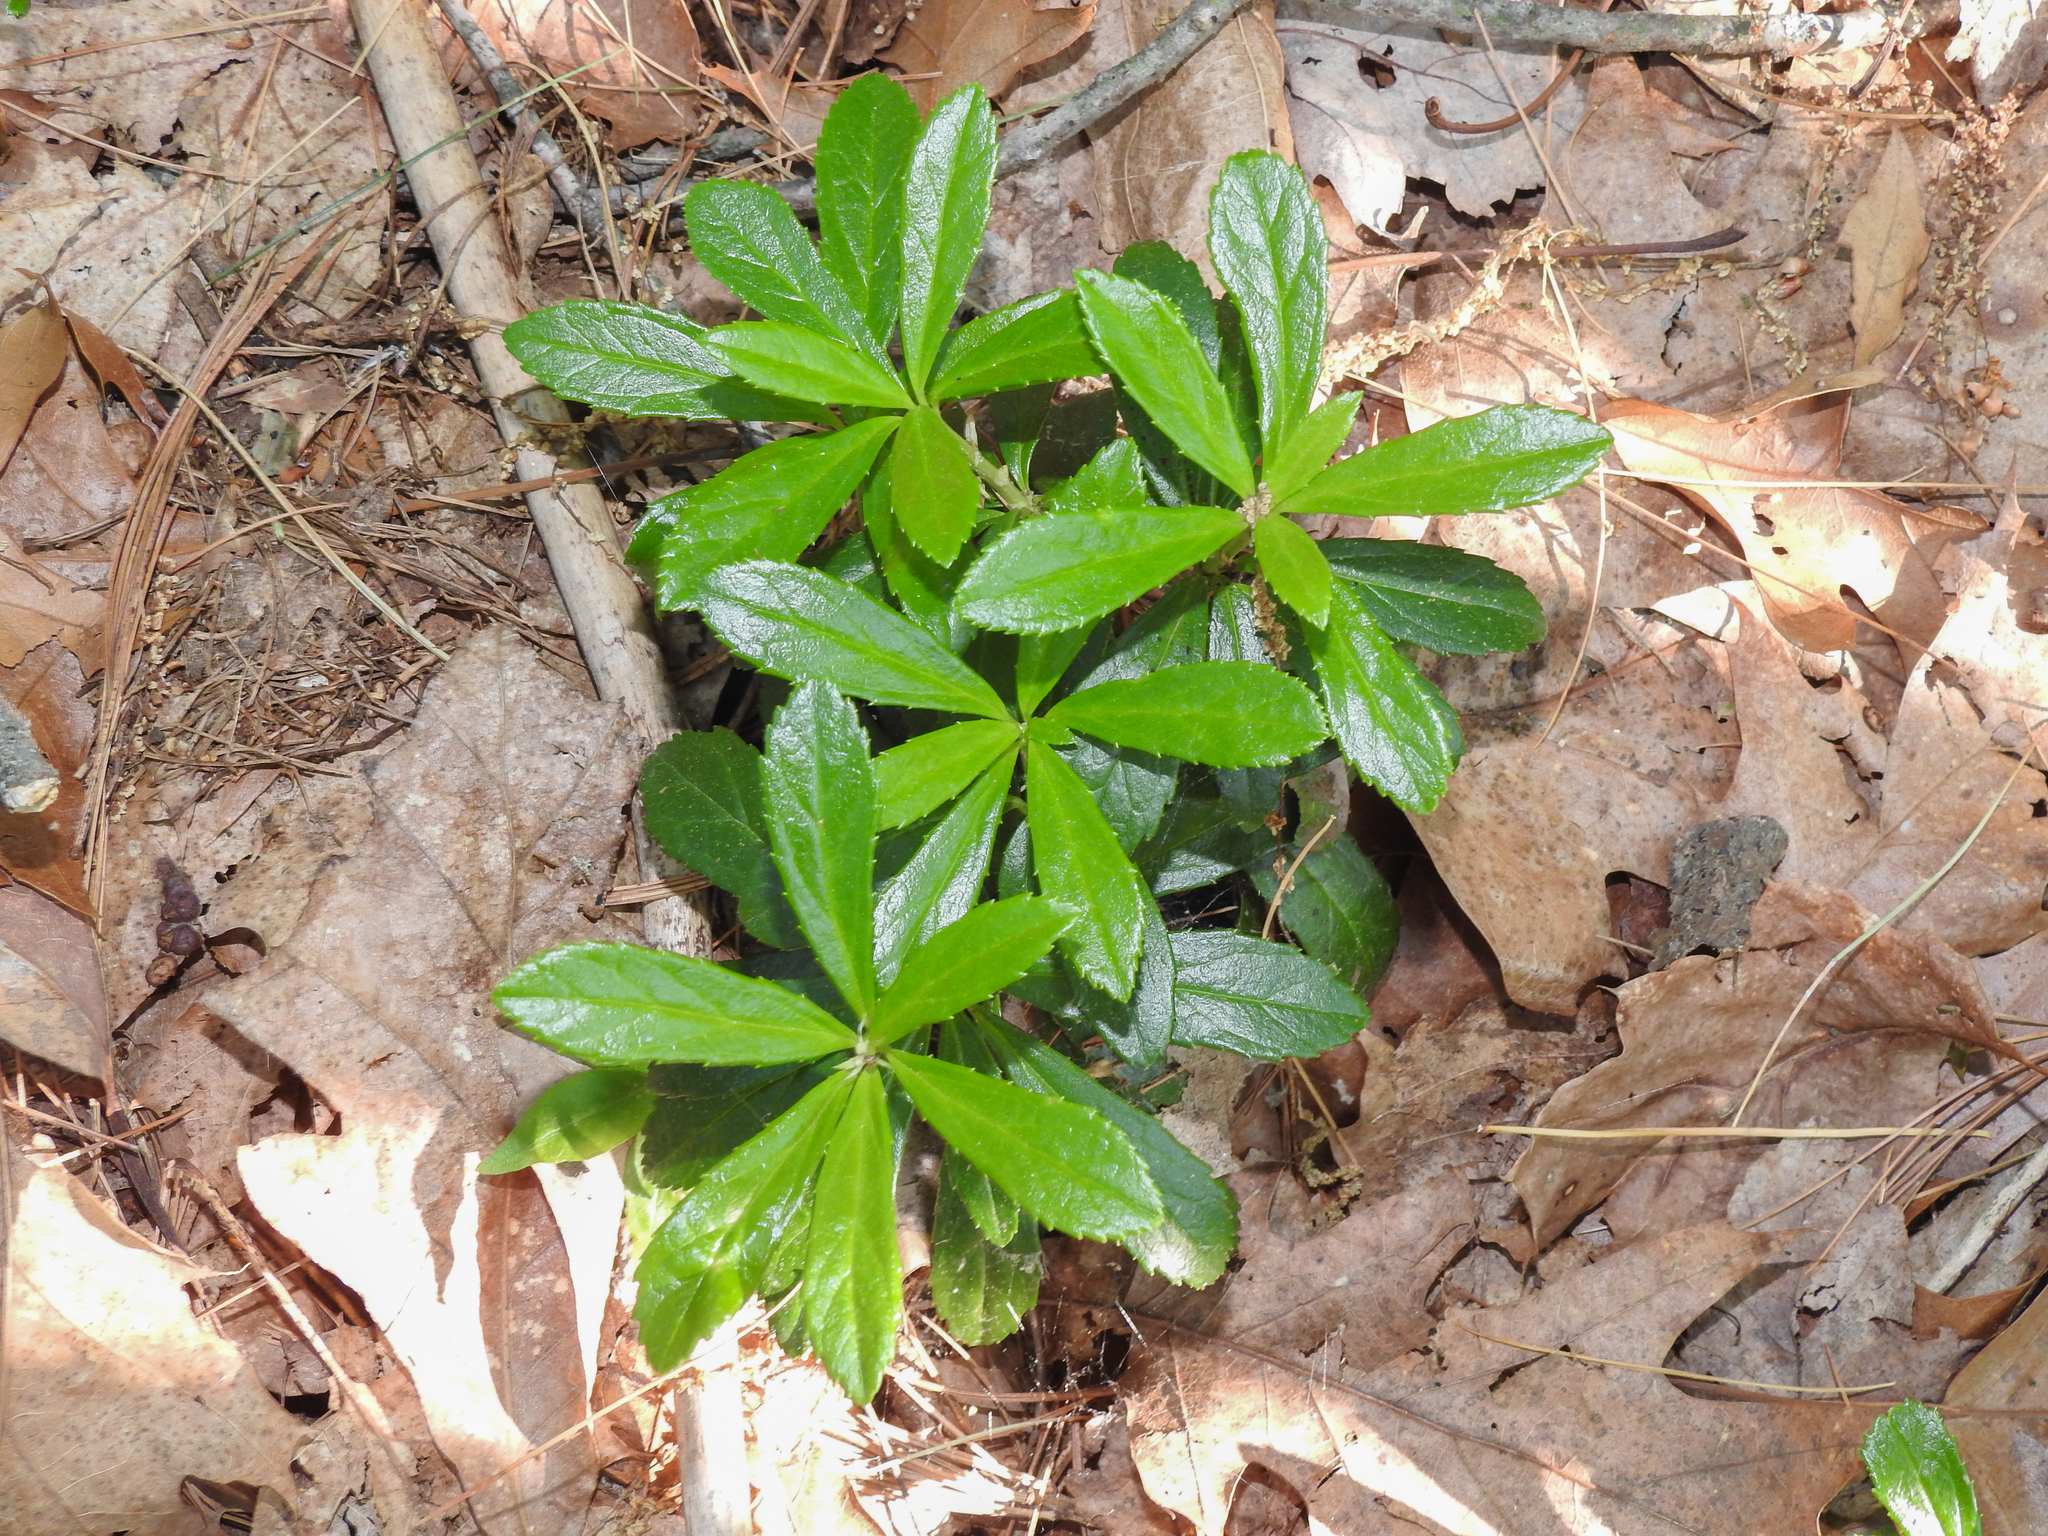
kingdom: Plantae
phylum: Tracheophyta
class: Magnoliopsida
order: Ericales
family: Ericaceae
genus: Chimaphila
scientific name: Chimaphila umbellata
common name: Pipsissewa
